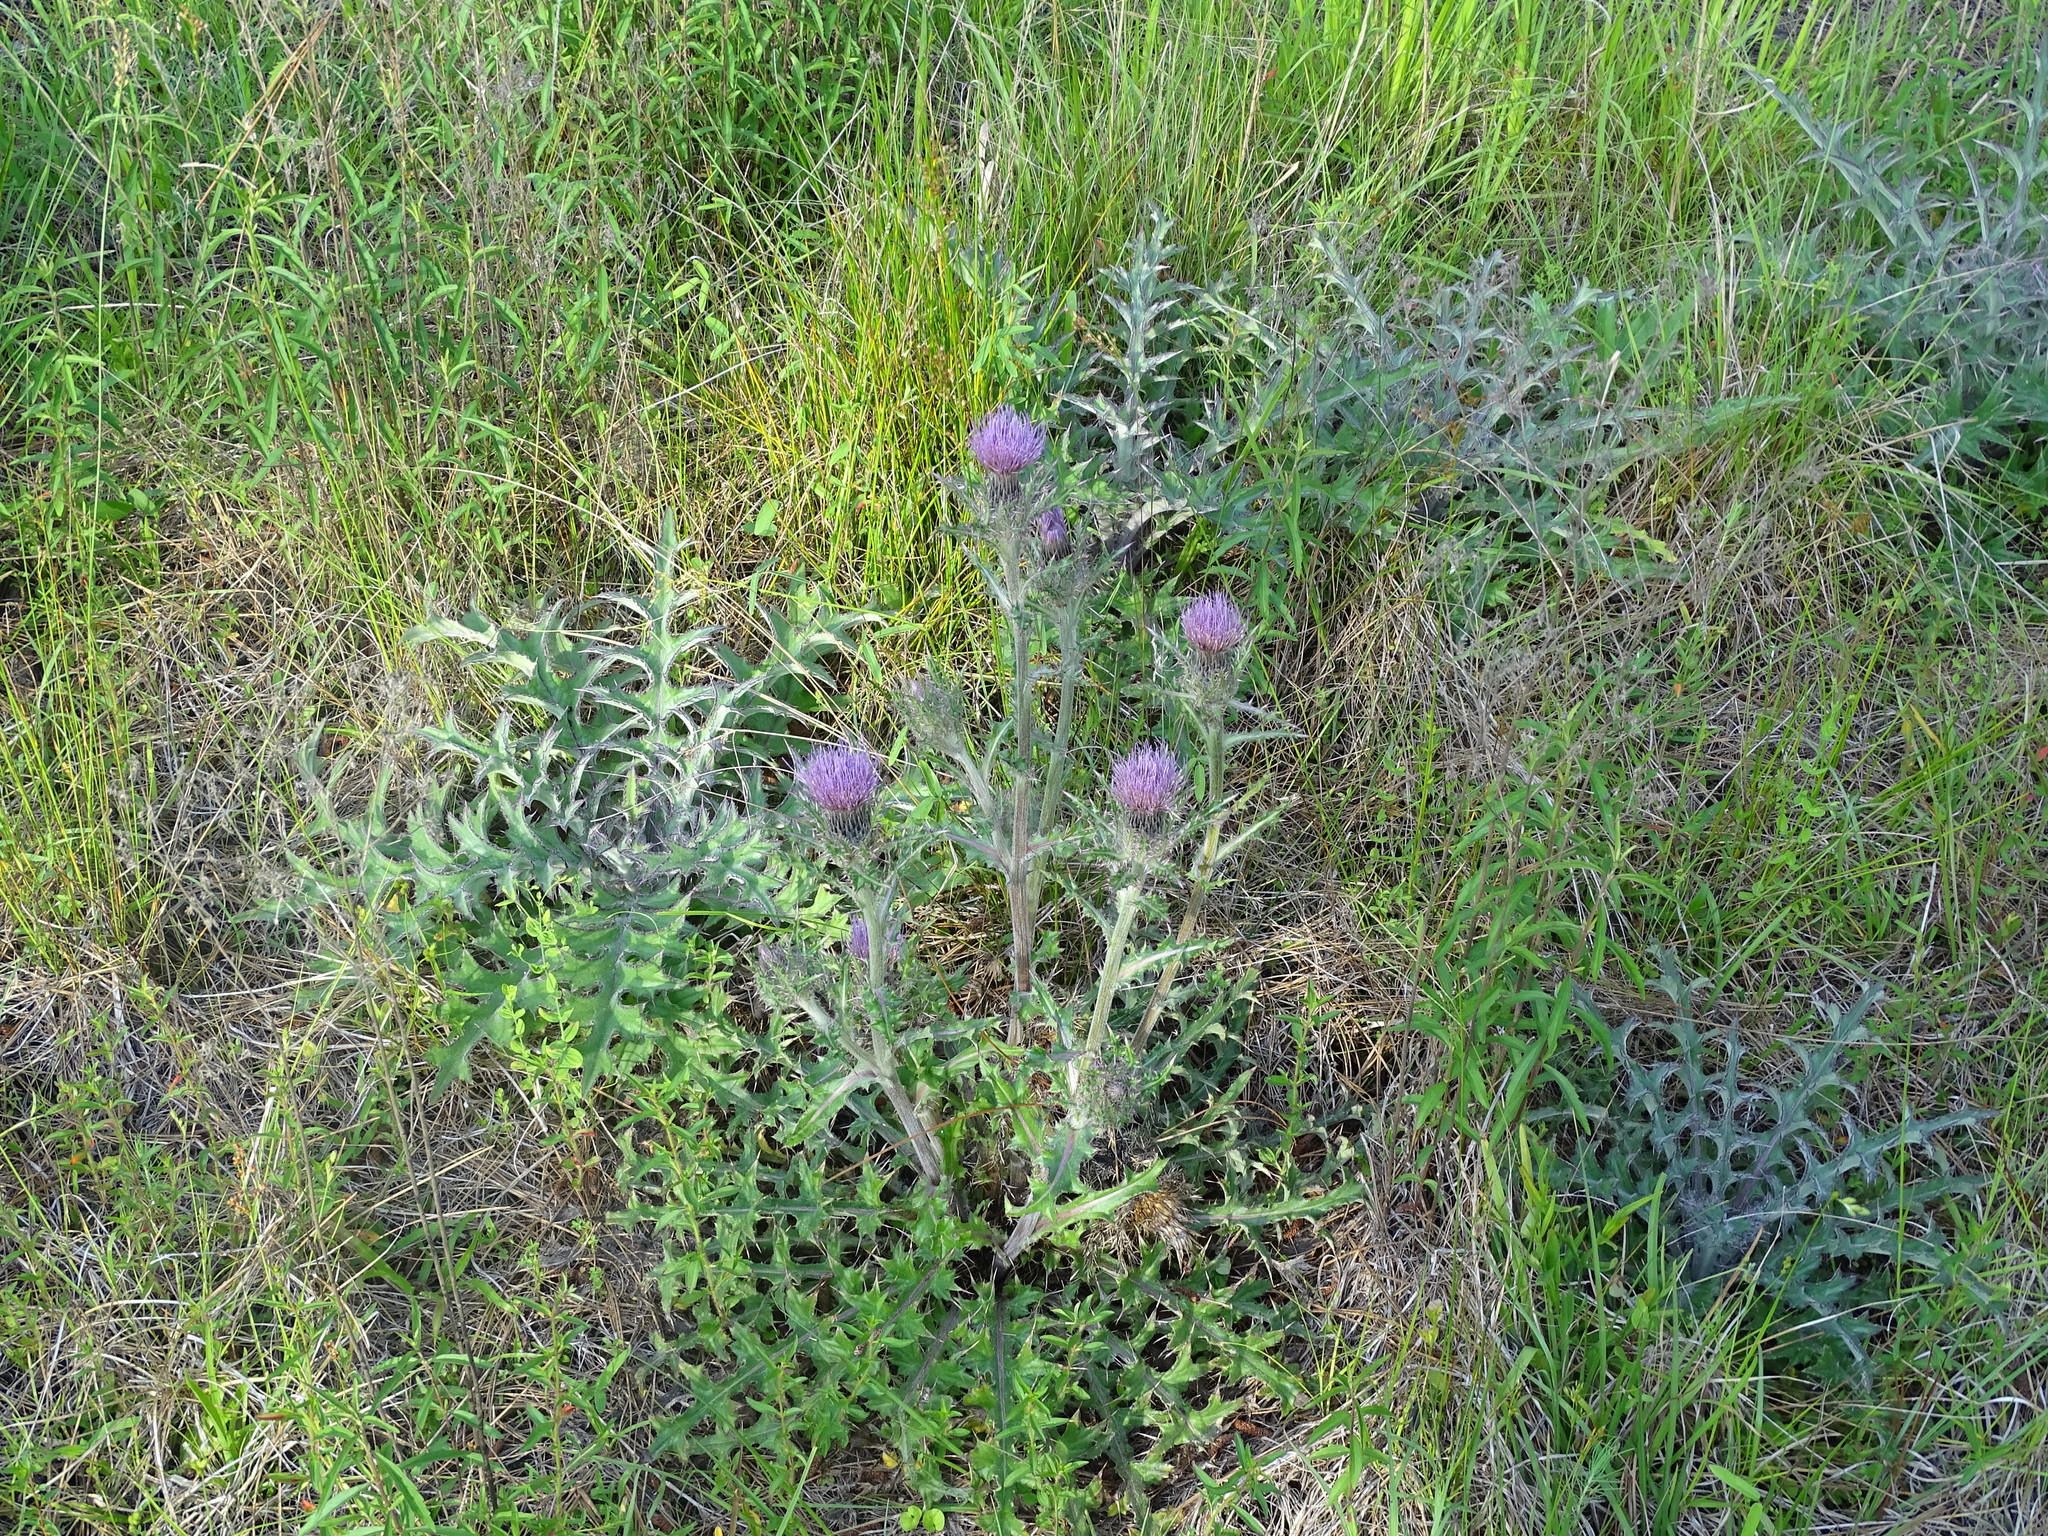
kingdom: Plantae
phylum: Tracheophyta
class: Magnoliopsida
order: Asterales
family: Asteraceae
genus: Cirsium
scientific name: Cirsium horridulum
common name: Bristly thistle
